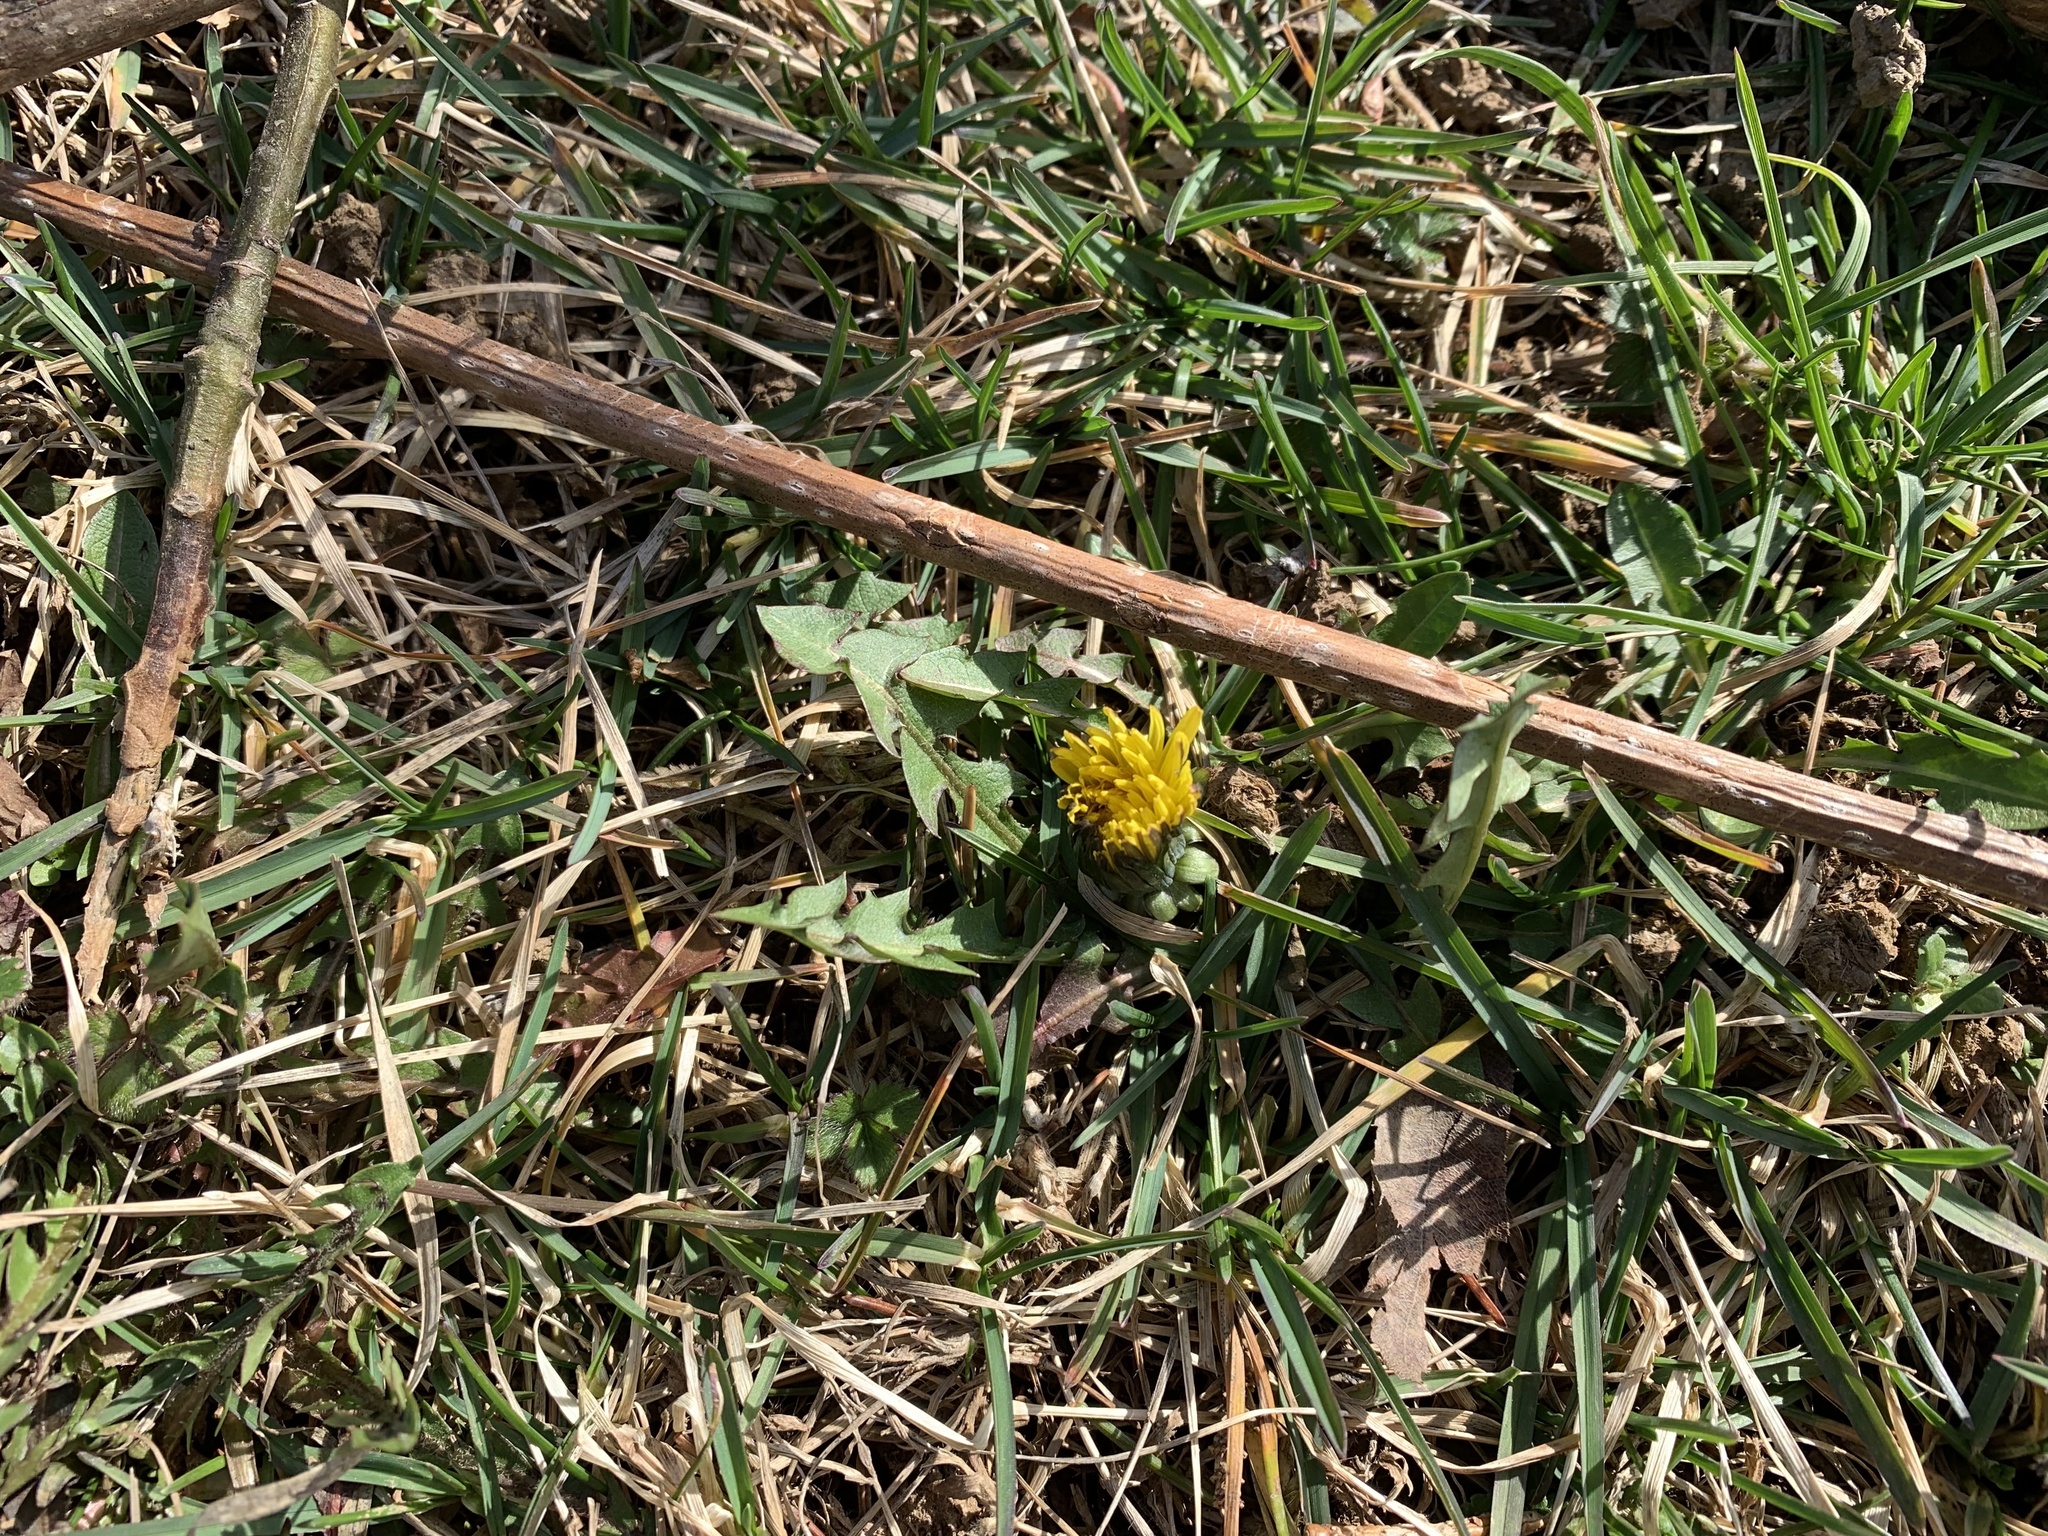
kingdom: Plantae
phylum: Tracheophyta
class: Magnoliopsida
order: Asterales
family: Asteraceae
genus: Taraxacum
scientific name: Taraxacum officinale
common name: Common dandelion
